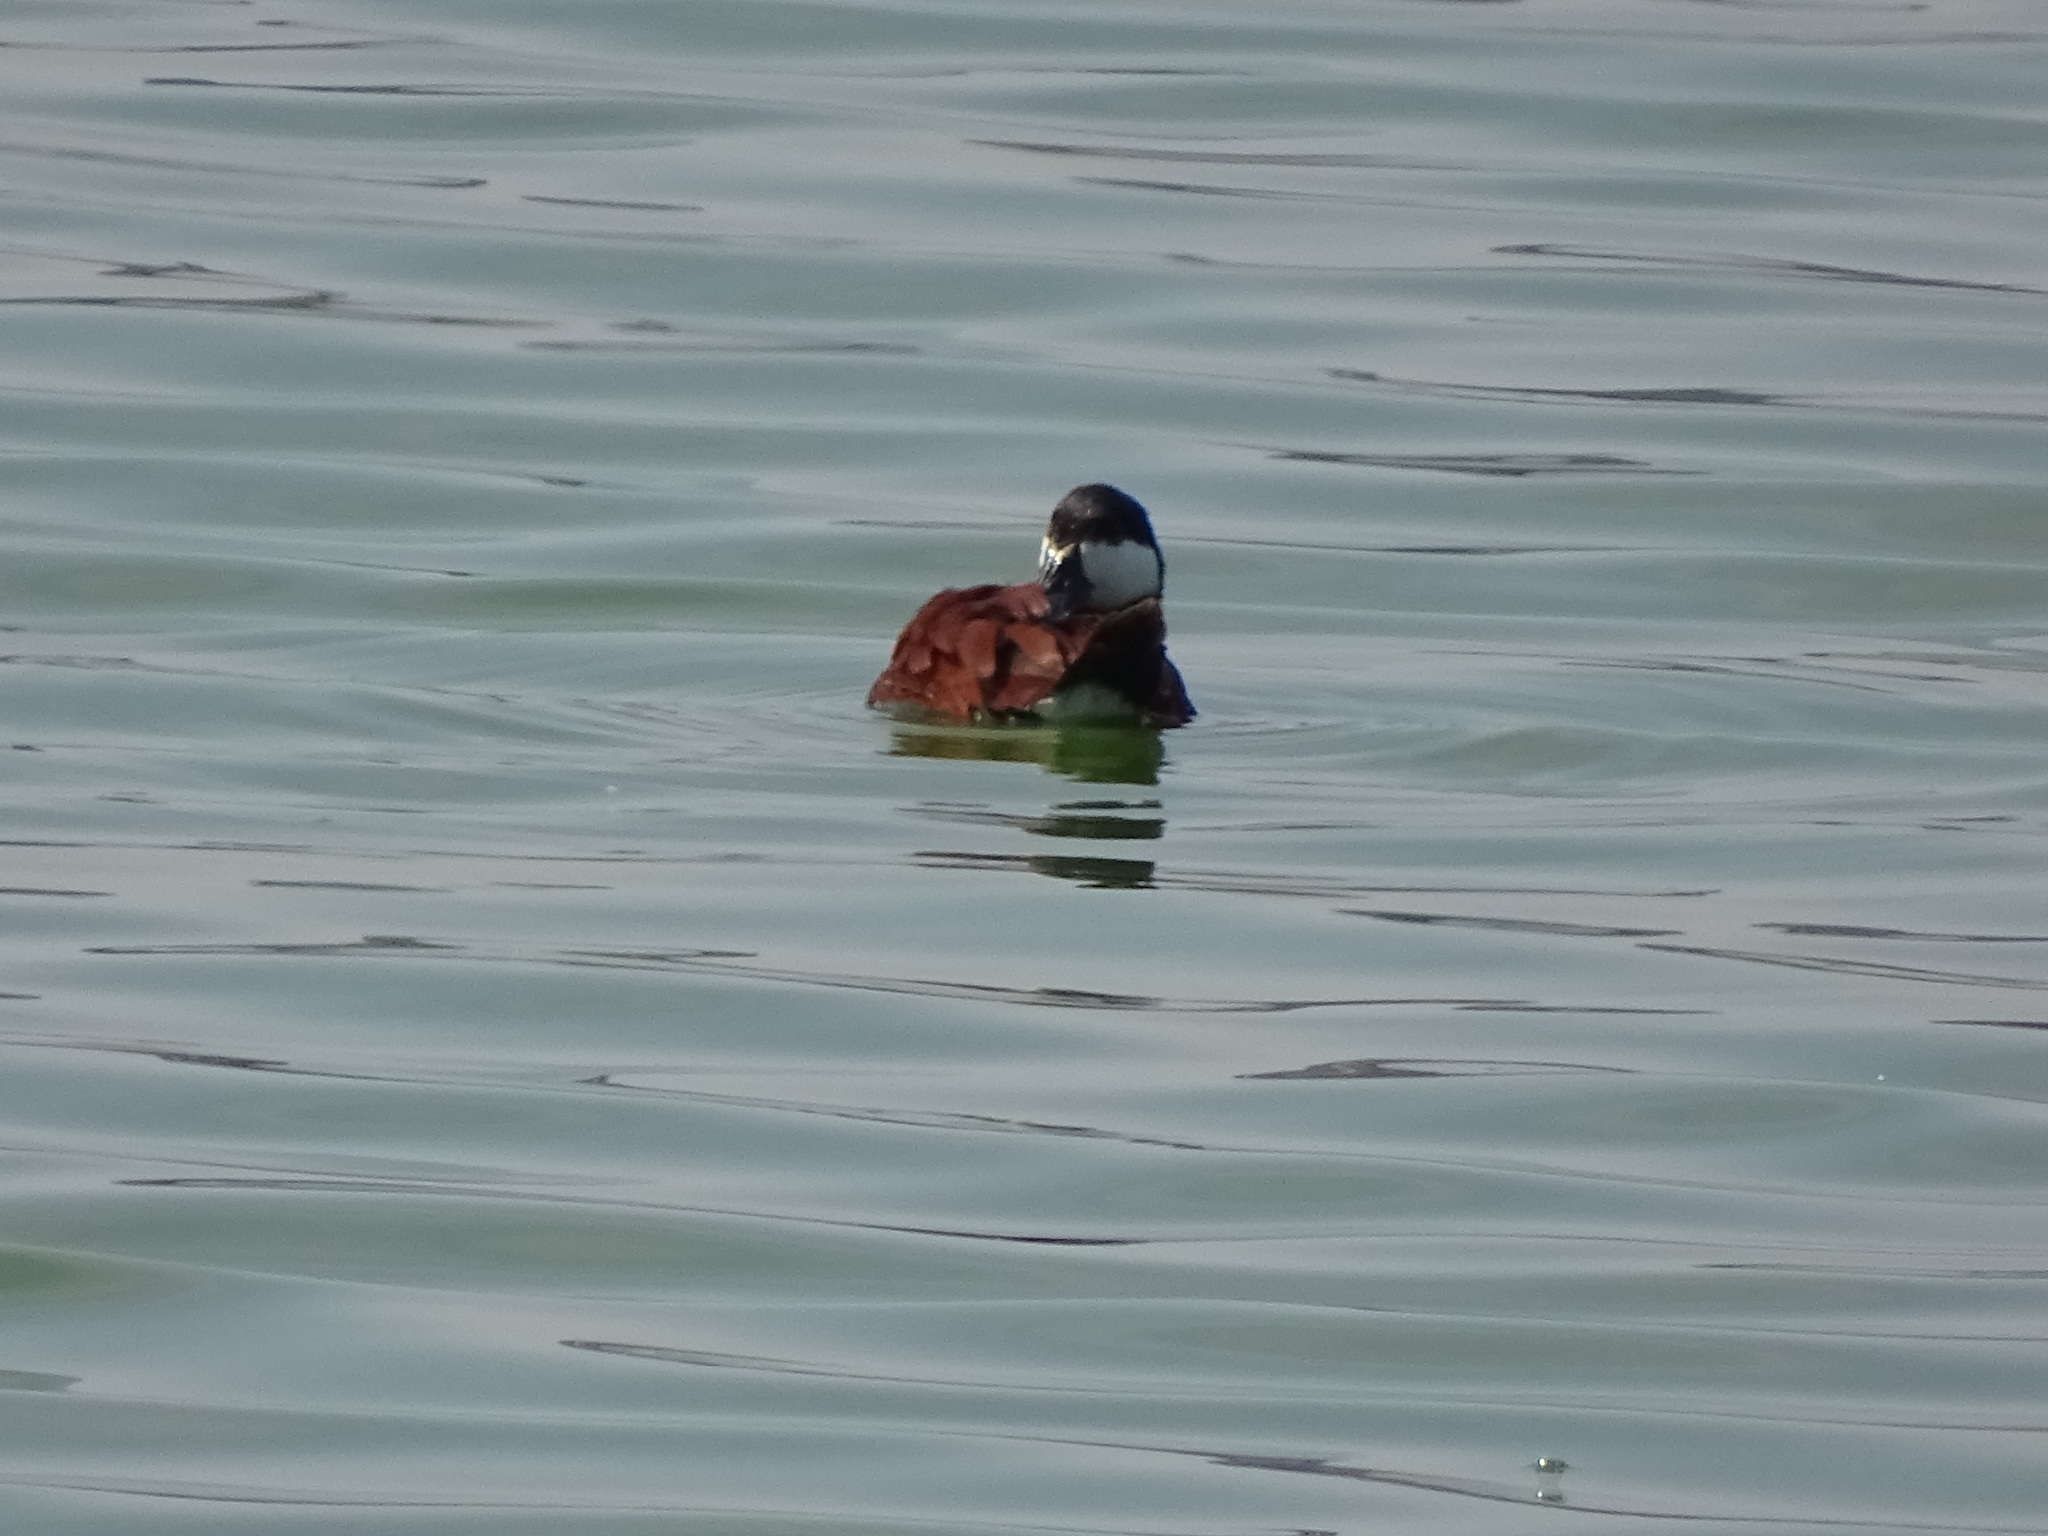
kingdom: Animalia
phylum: Chordata
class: Aves
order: Anseriformes
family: Anatidae
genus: Oxyura
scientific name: Oxyura jamaicensis
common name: Ruddy duck
